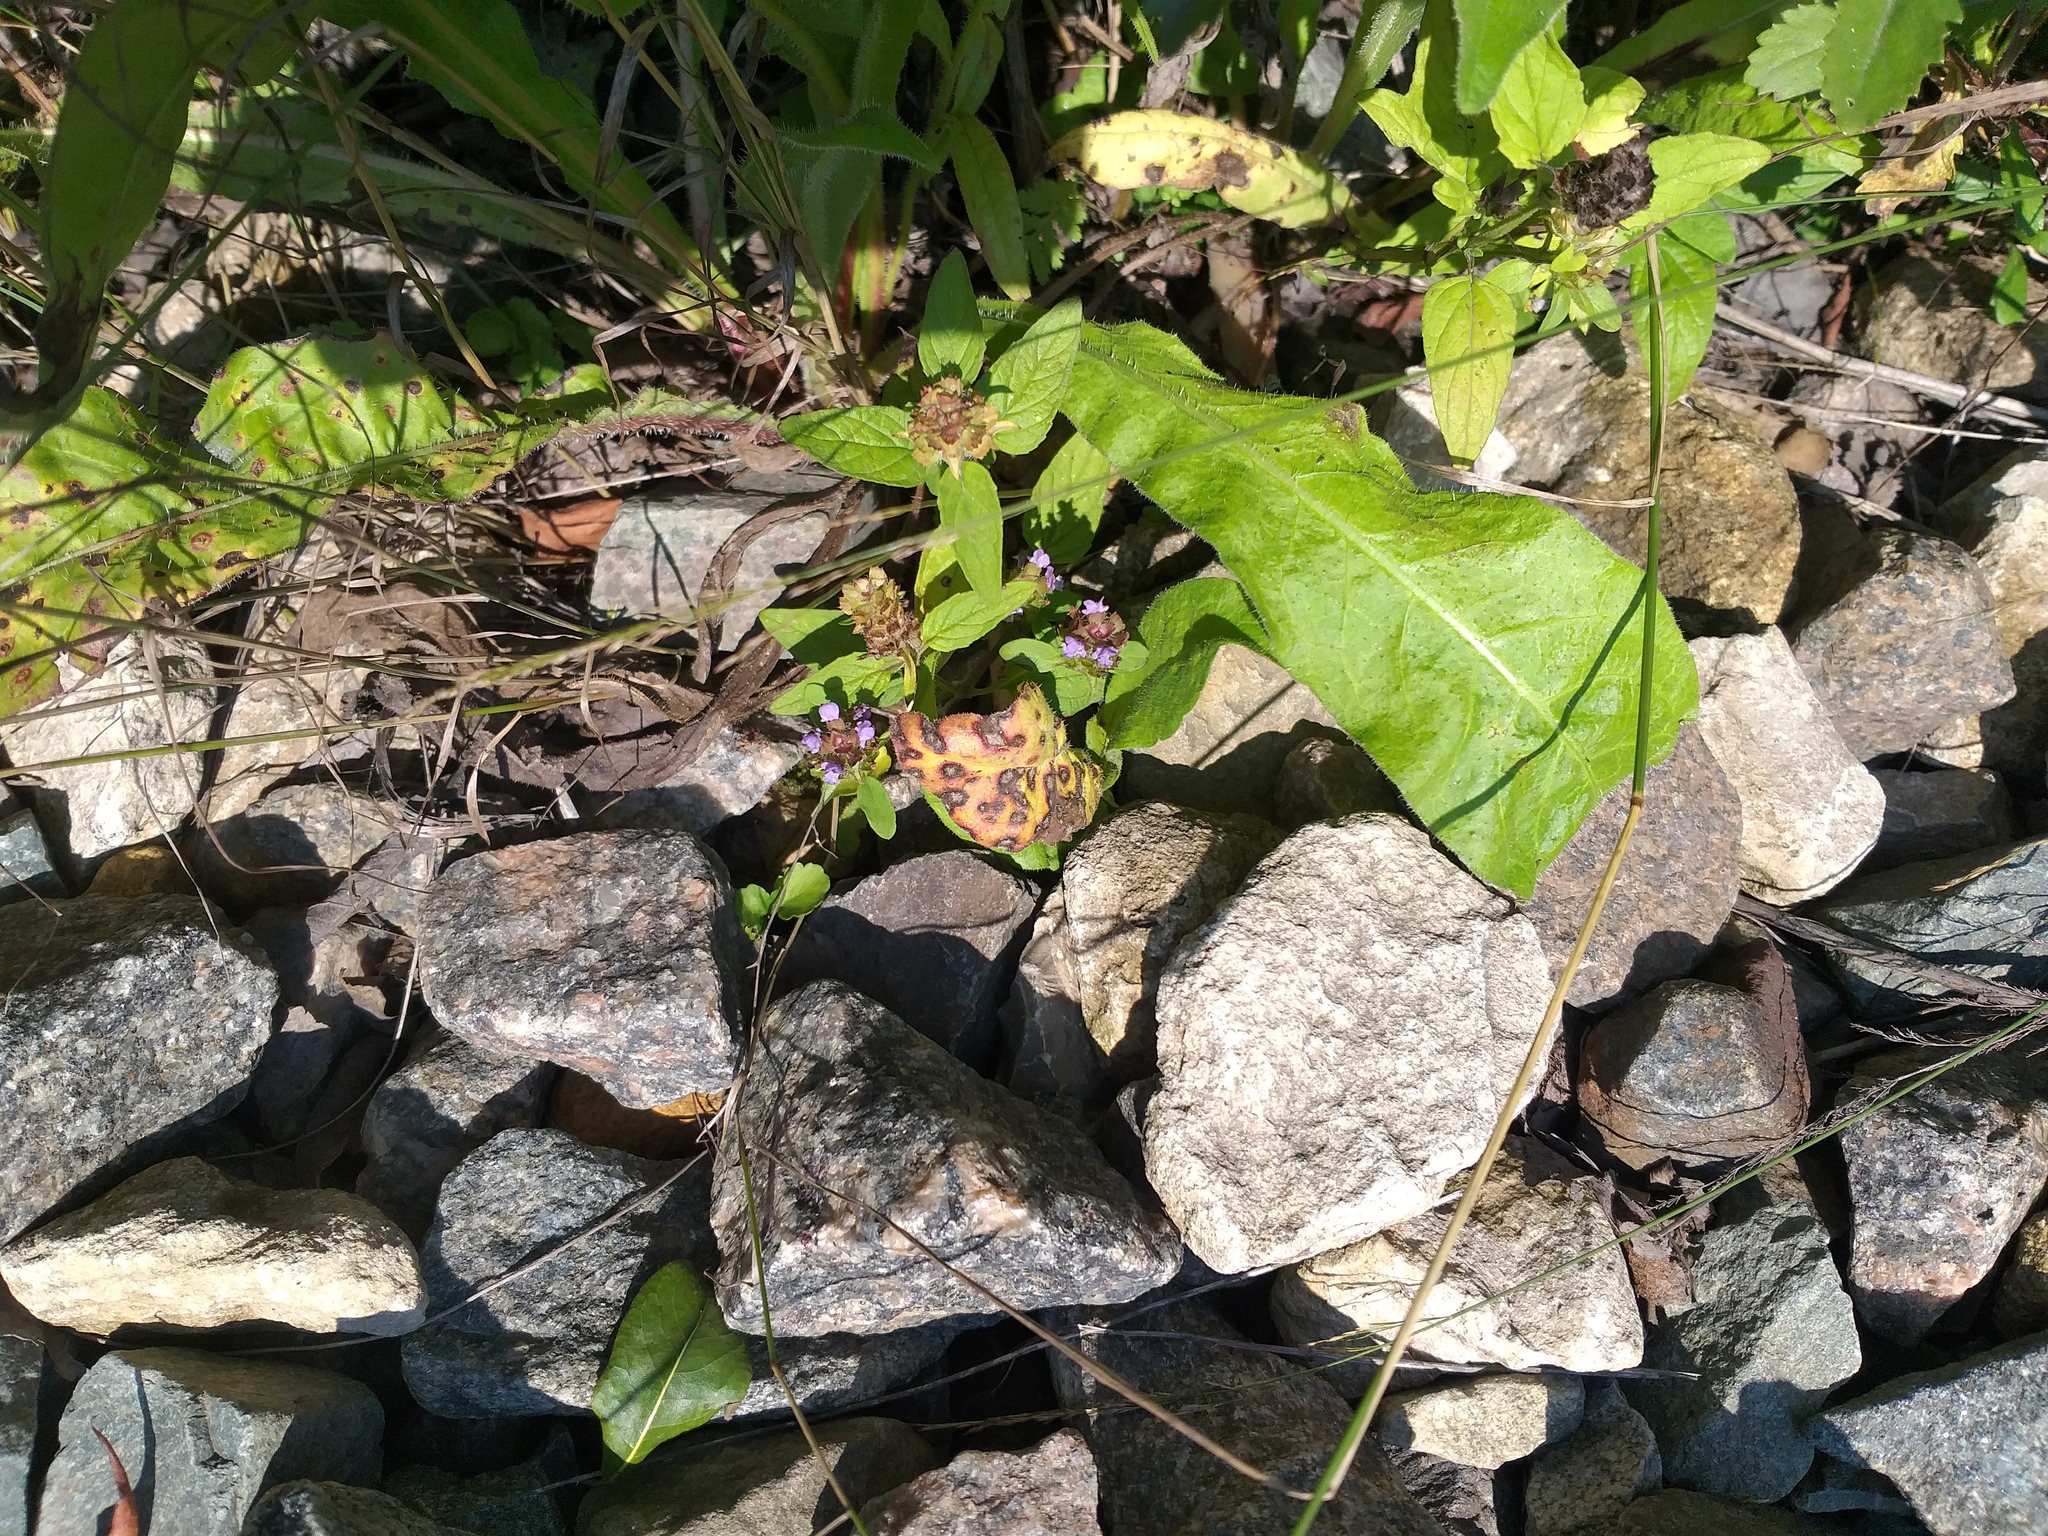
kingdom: Plantae
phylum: Tracheophyta
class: Magnoliopsida
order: Lamiales
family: Lamiaceae
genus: Prunella
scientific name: Prunella vulgaris
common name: Heal-all
